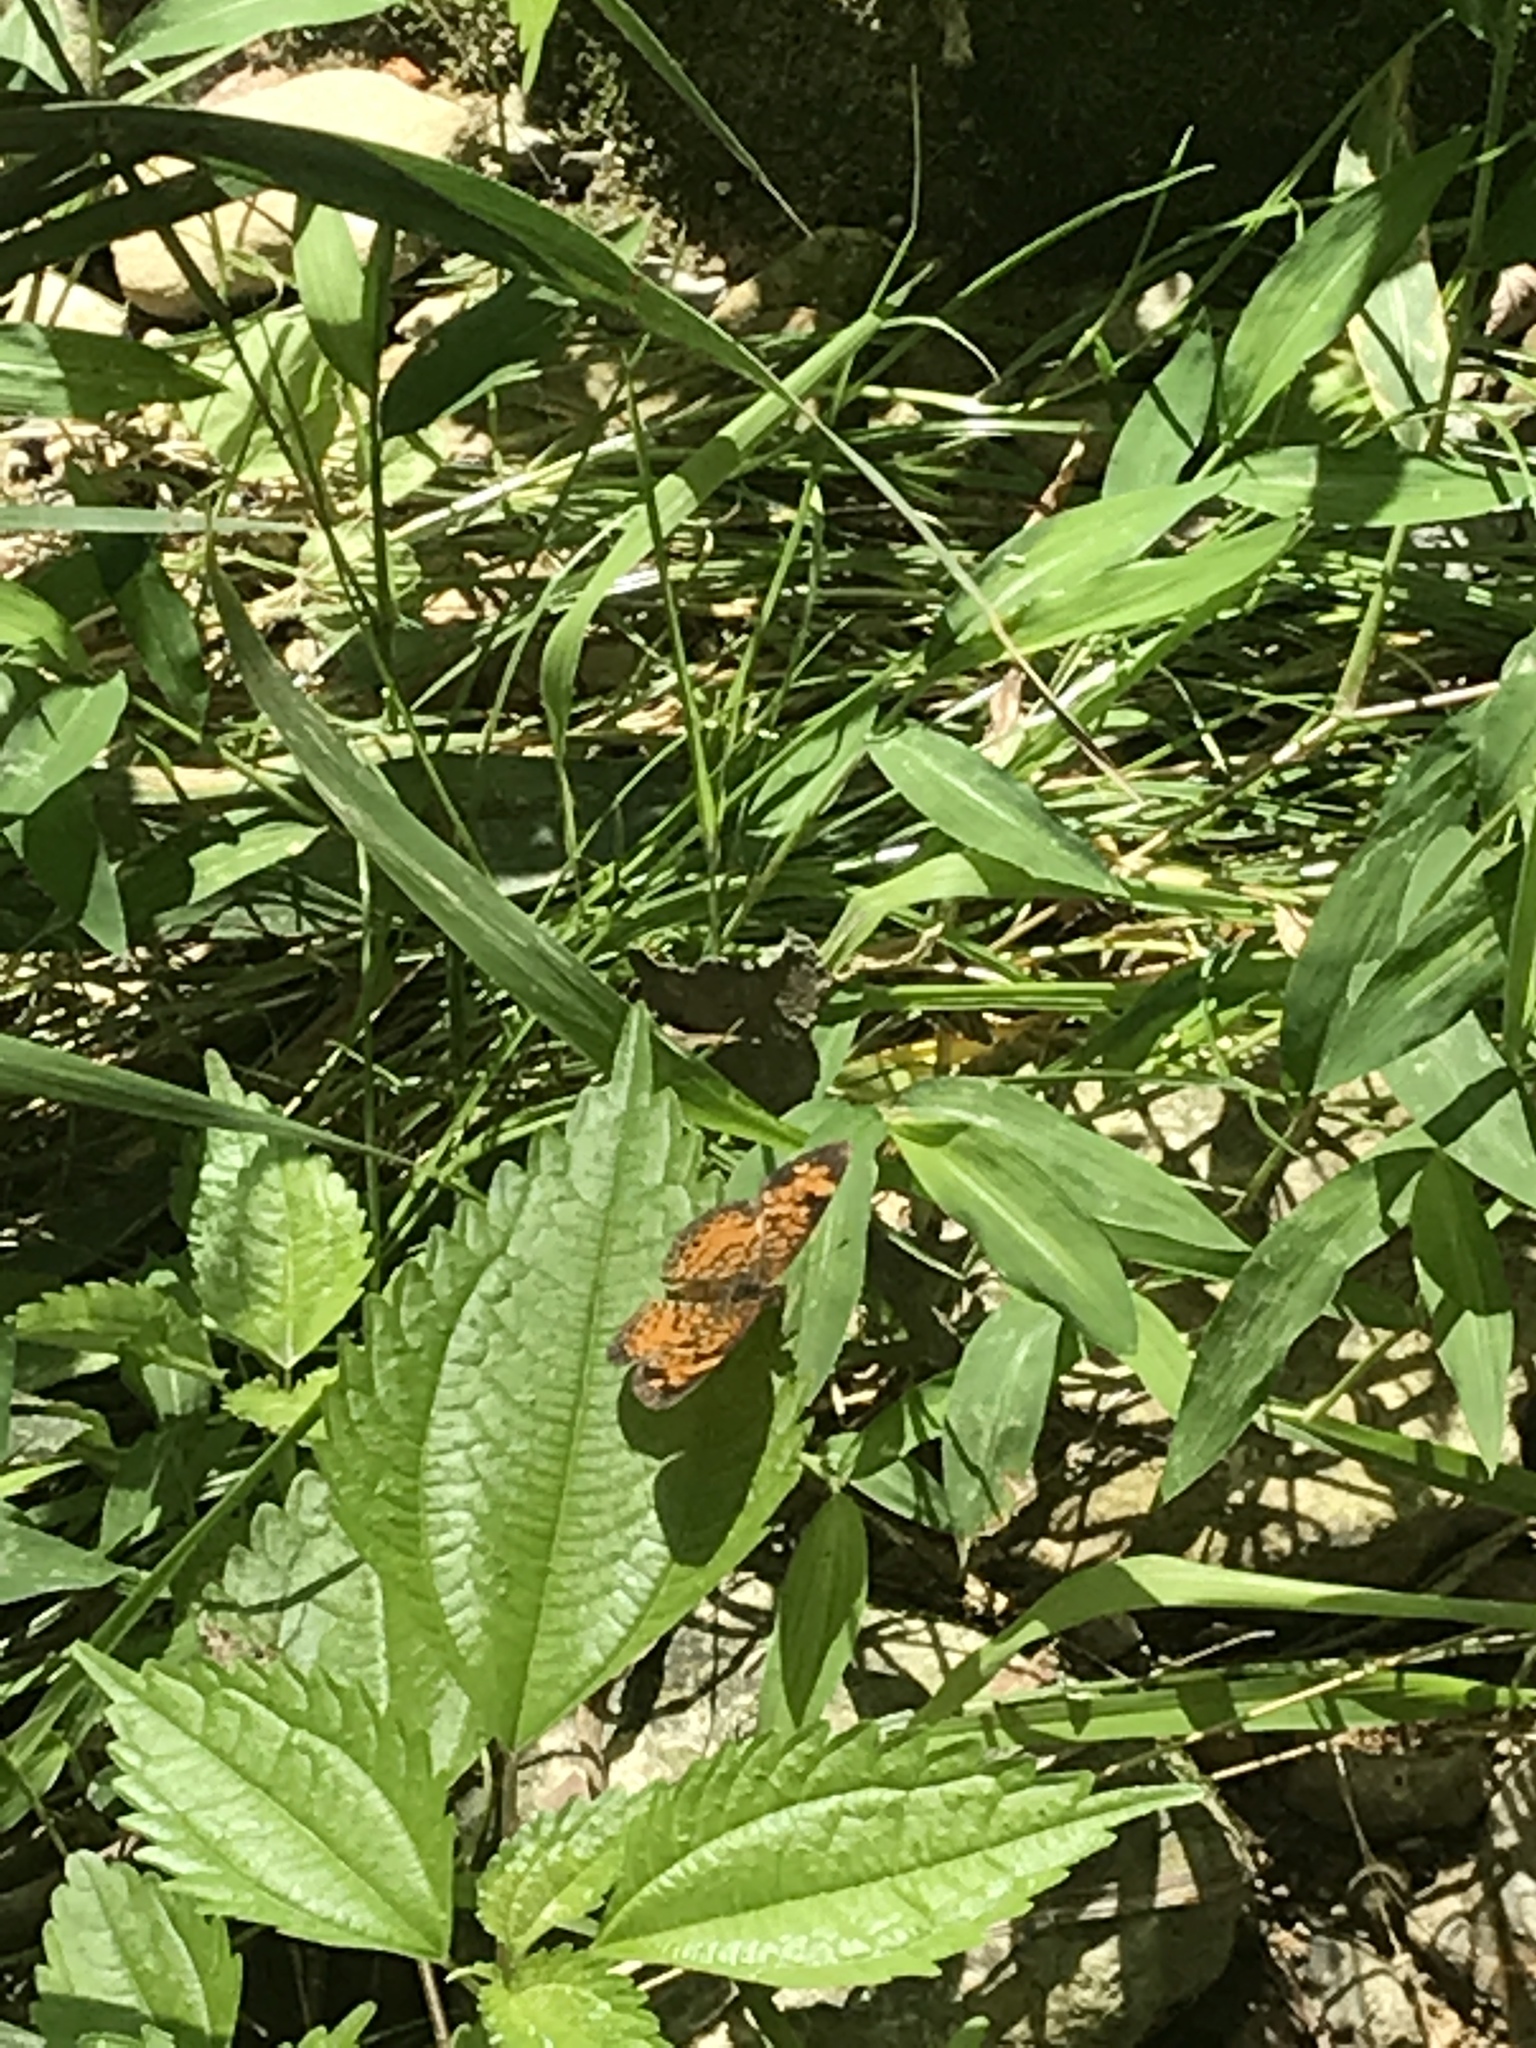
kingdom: Animalia
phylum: Arthropoda
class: Insecta
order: Lepidoptera
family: Nymphalidae
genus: Phyciodes
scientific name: Phyciodes tharos
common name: Pearl crescent
